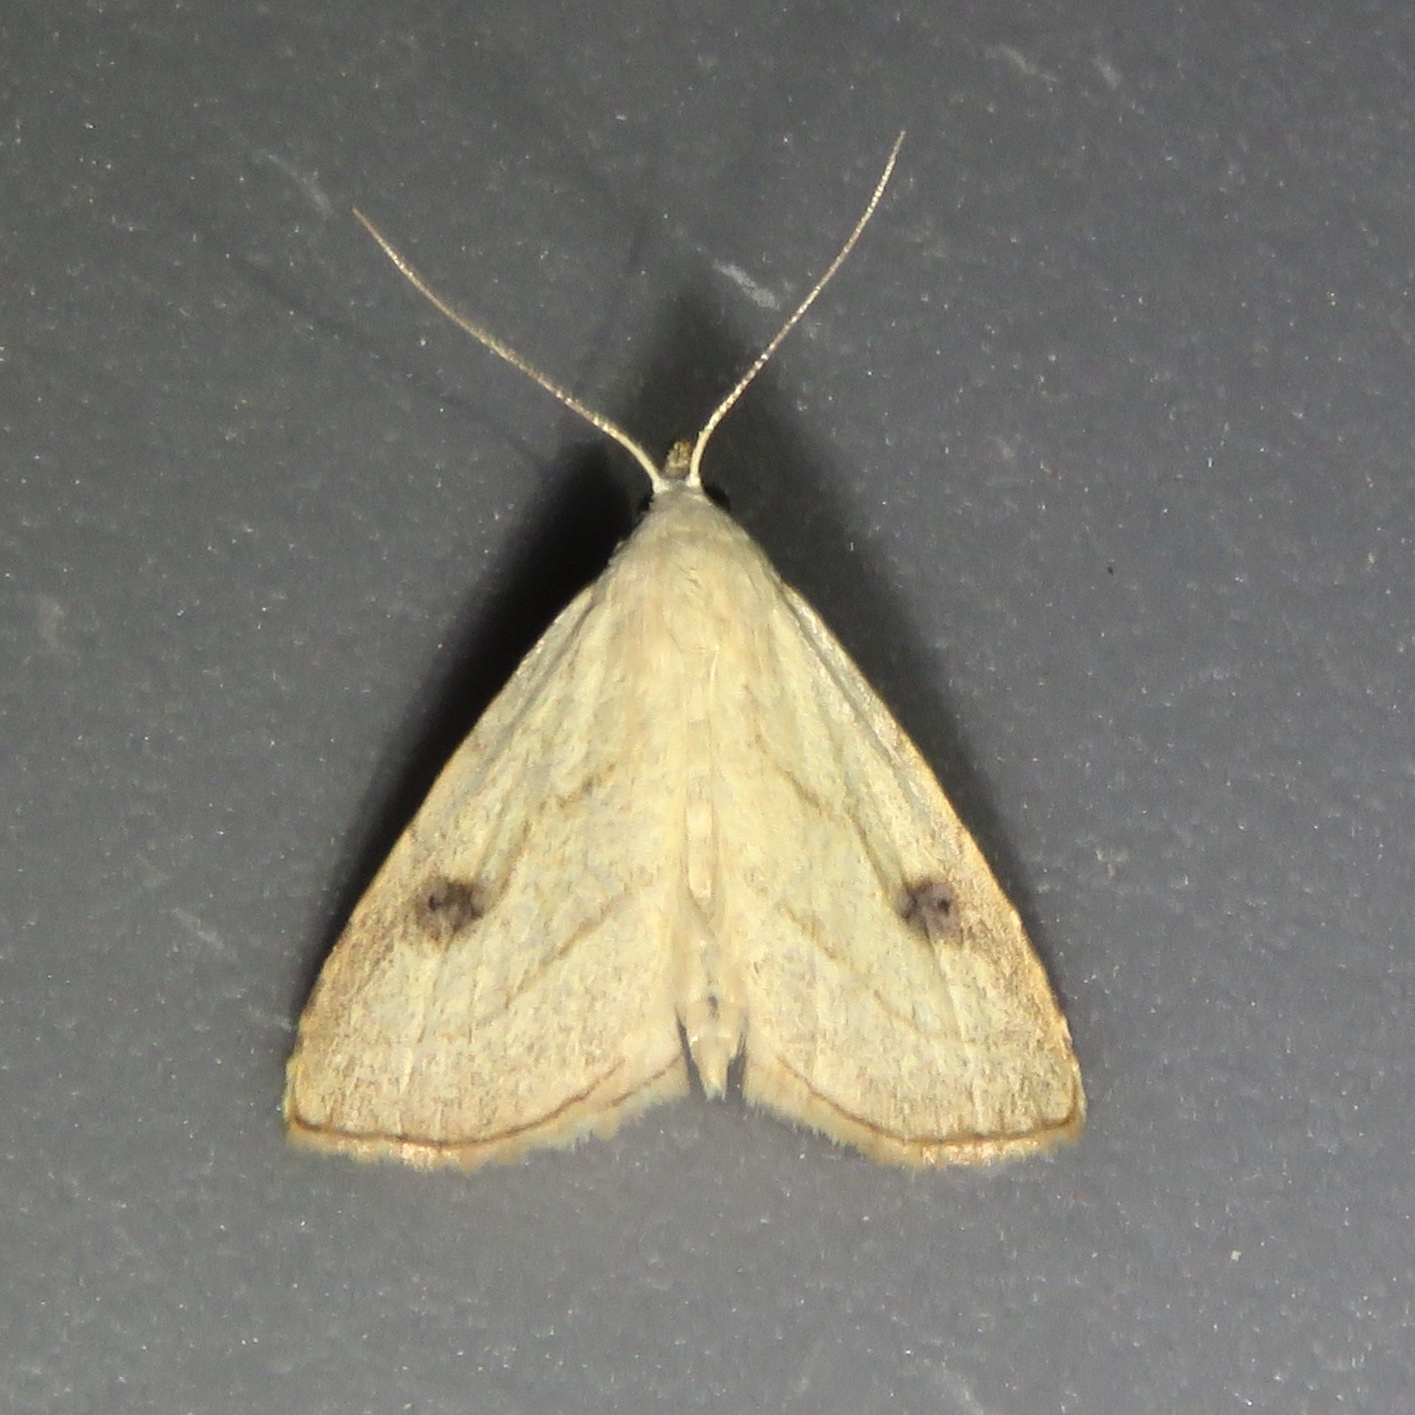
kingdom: Animalia
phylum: Arthropoda
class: Insecta
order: Lepidoptera
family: Erebidae
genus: Rivula
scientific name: Rivula propinqualis
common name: Spotted grass moth
